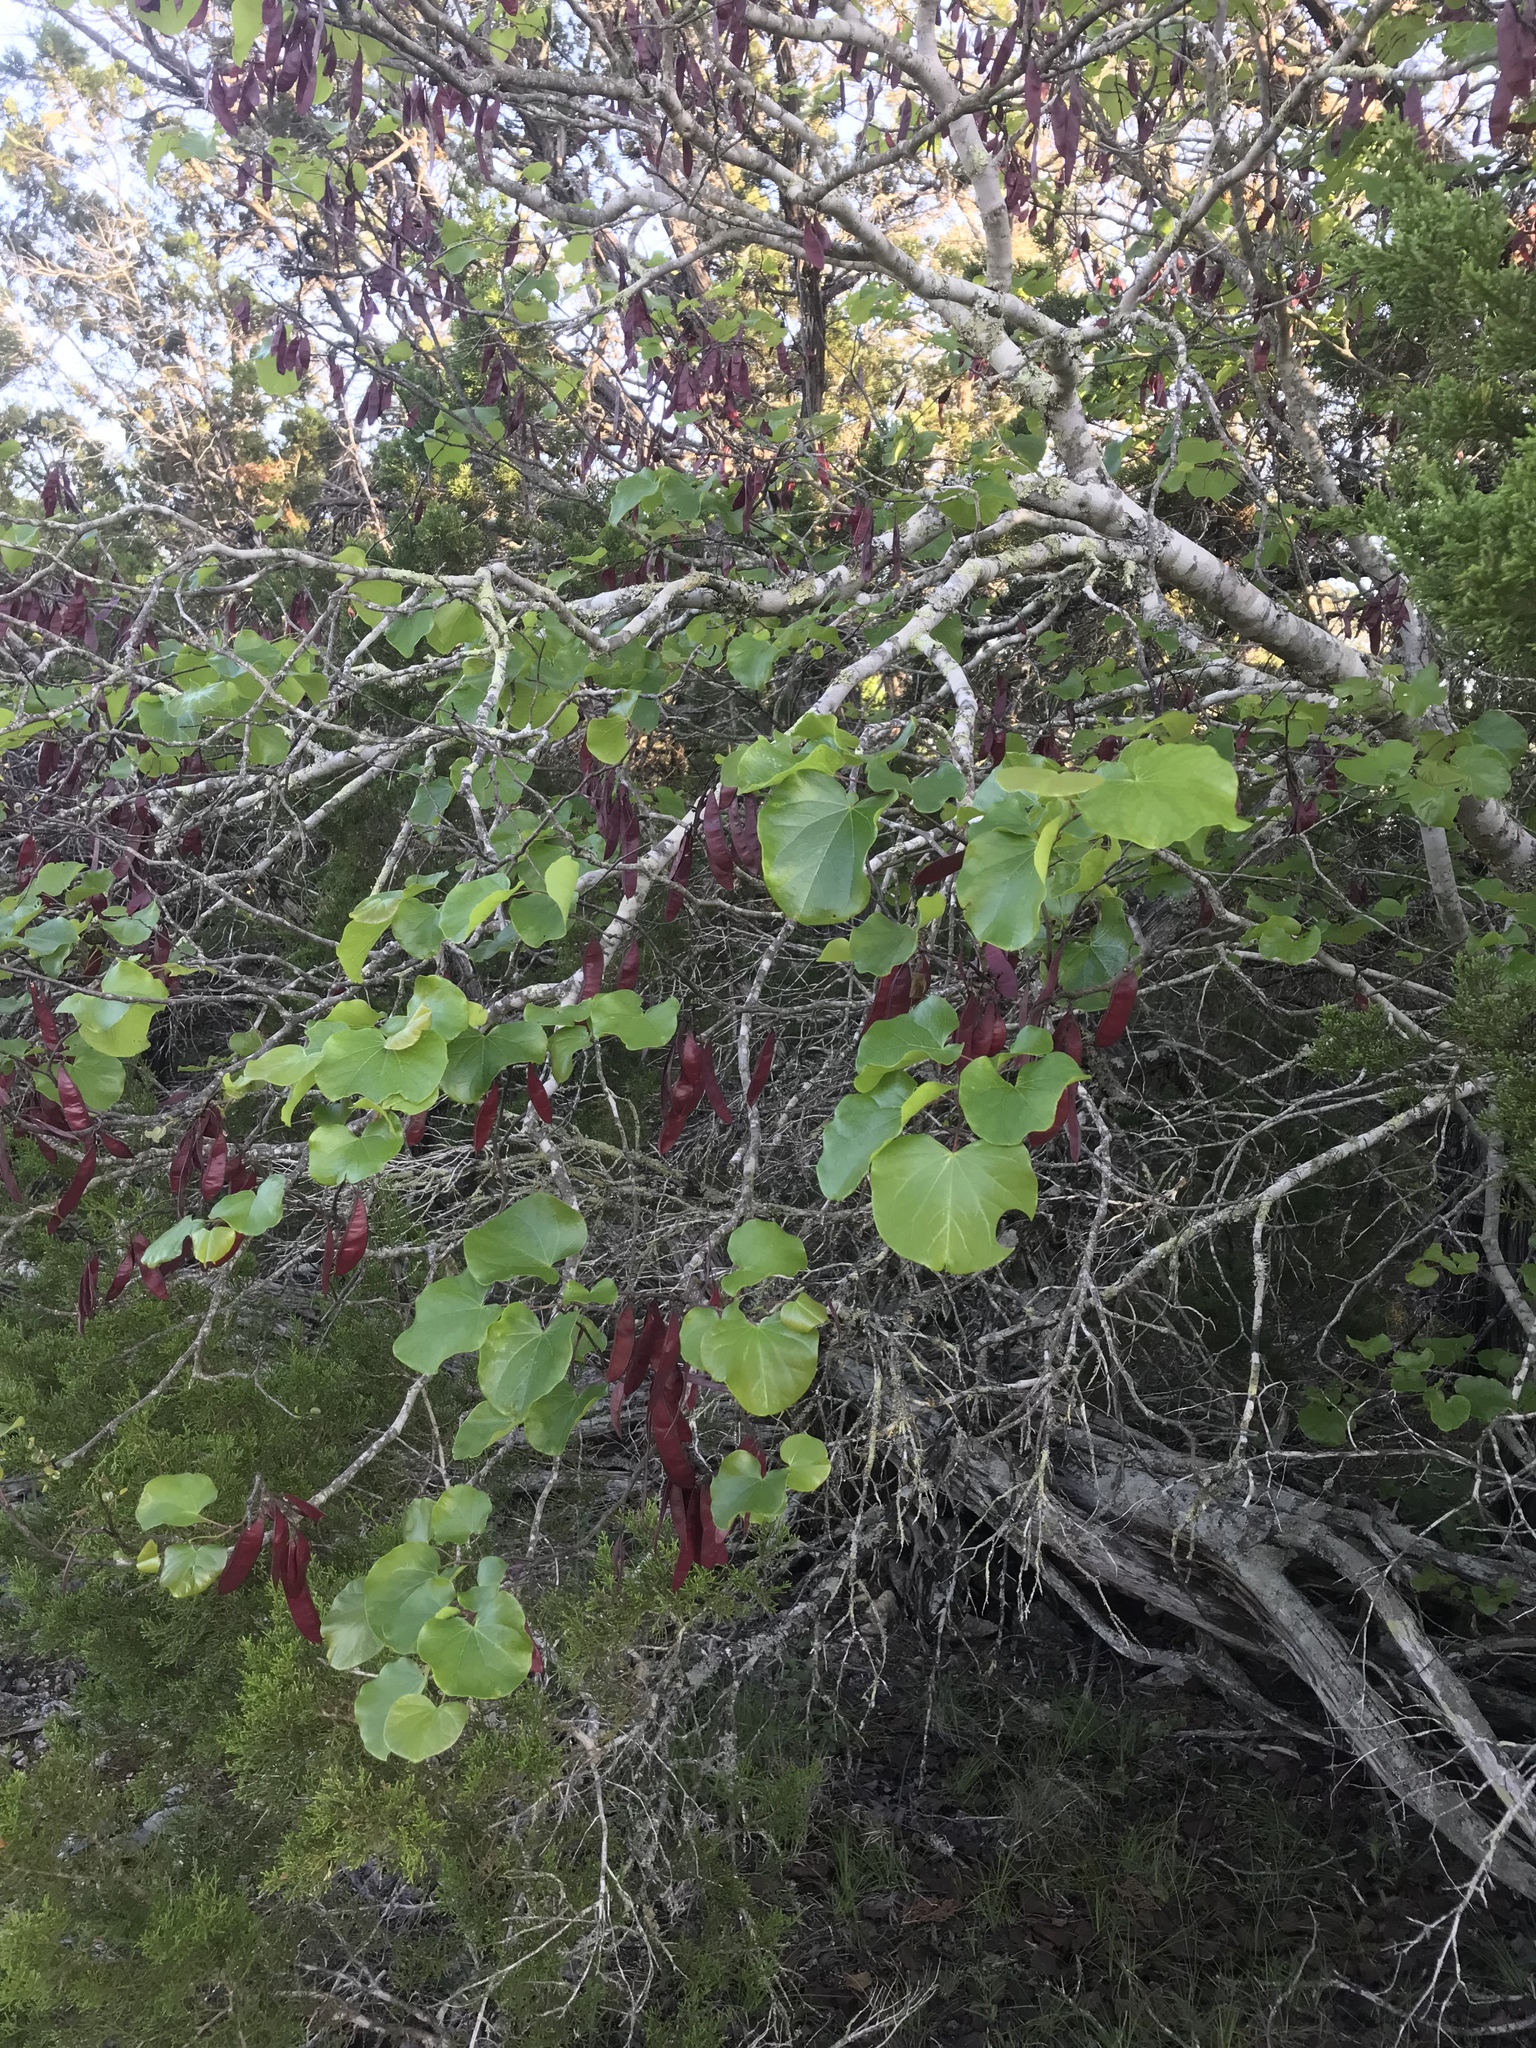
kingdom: Plantae
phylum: Tracheophyta
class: Magnoliopsida
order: Fabales
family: Fabaceae
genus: Cercis
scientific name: Cercis canadensis
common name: Eastern redbud
